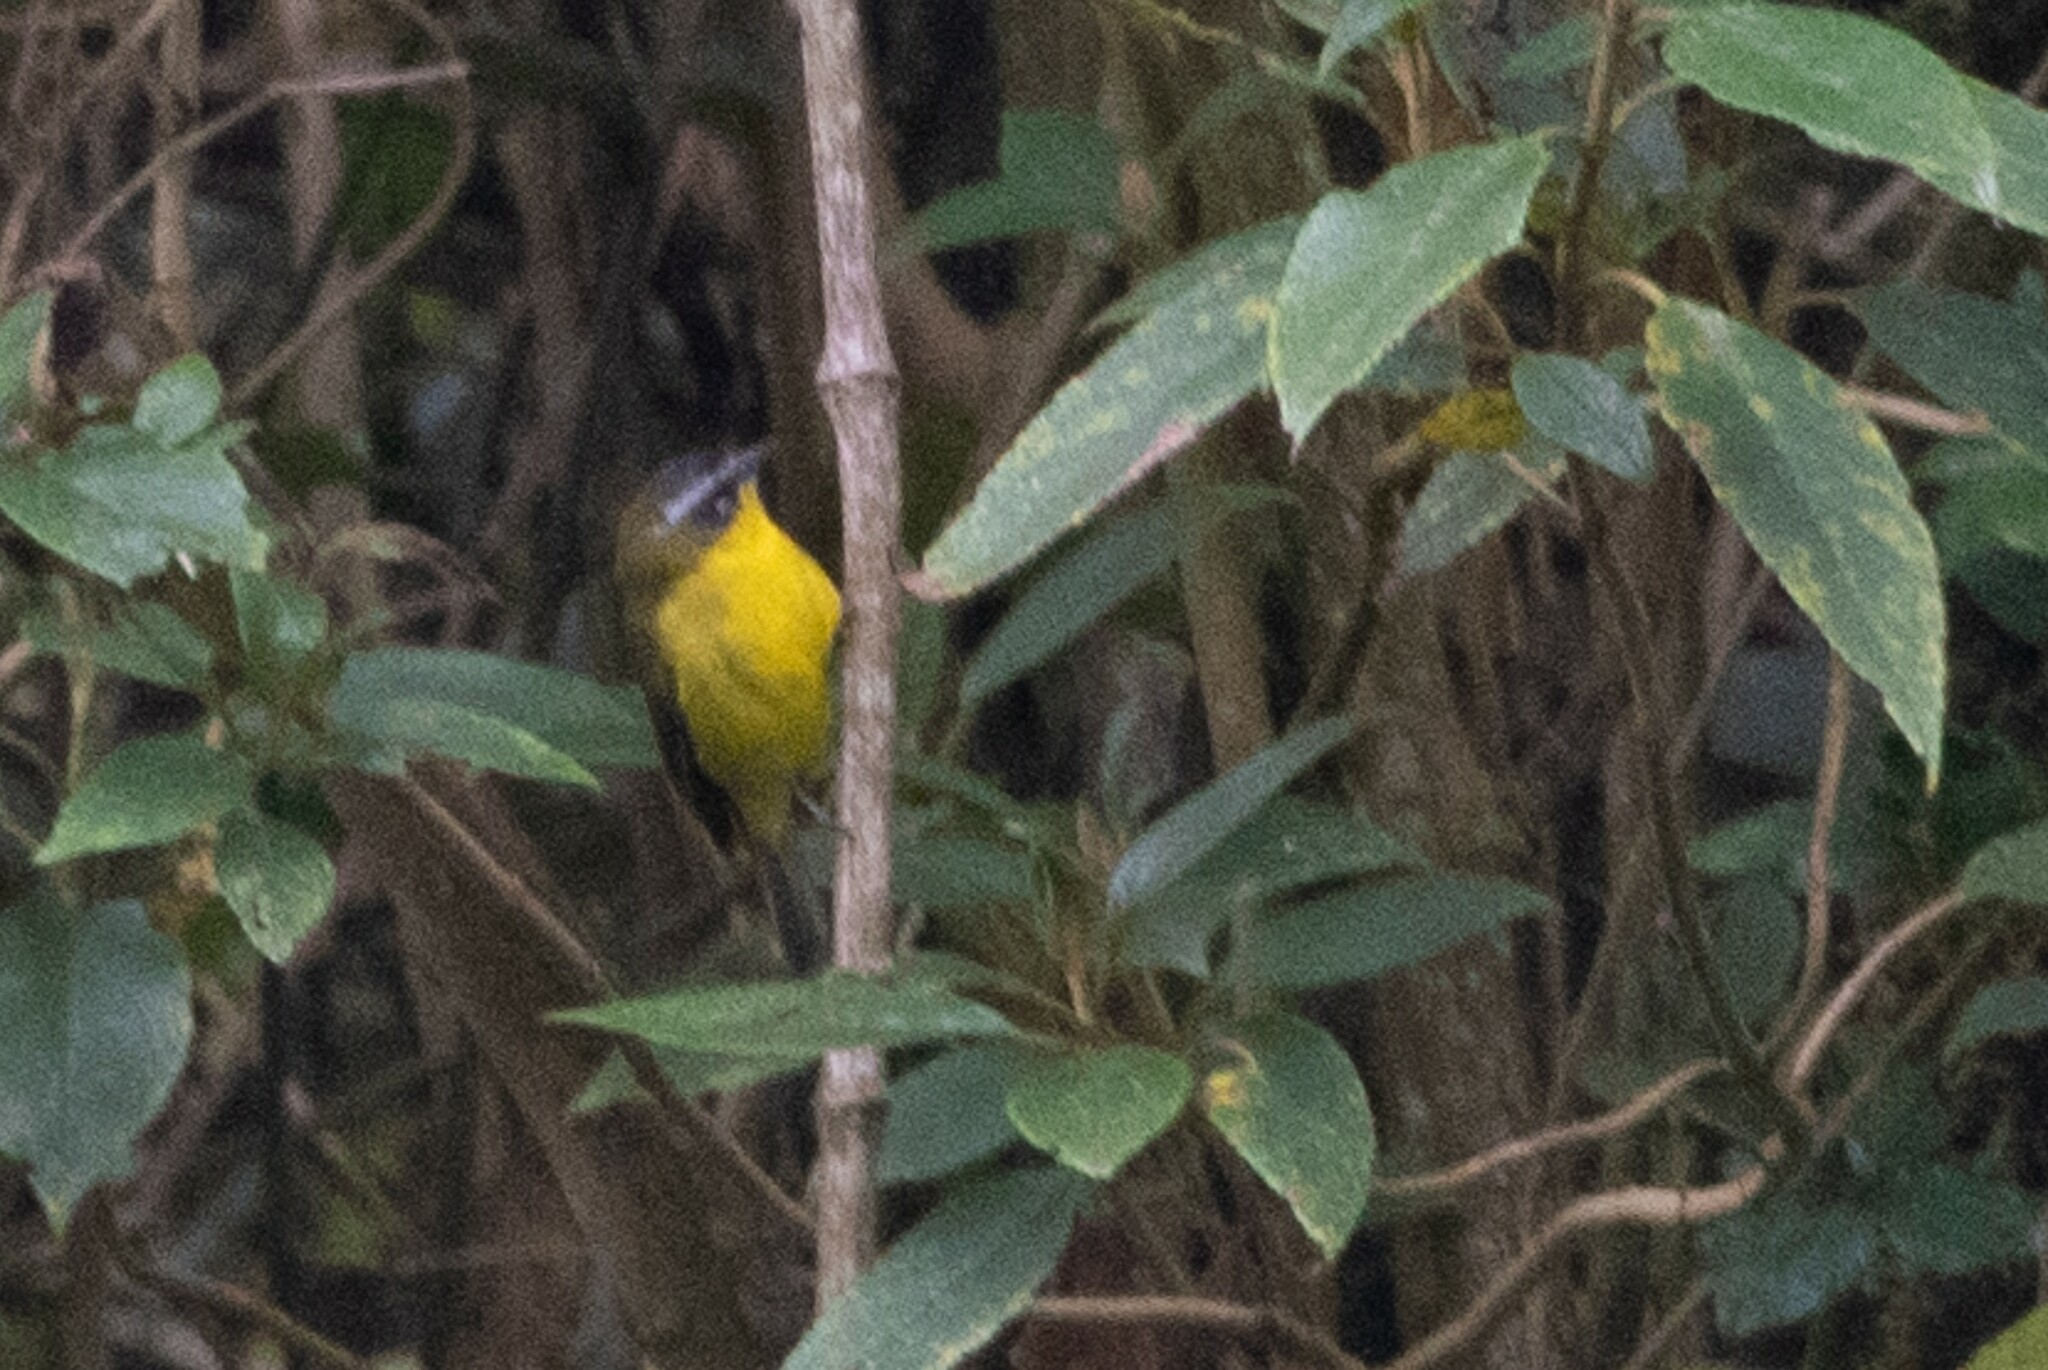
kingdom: Animalia
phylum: Chordata
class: Aves
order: Passeriformes
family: Thraupidae
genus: Thlypopsis
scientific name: Thlypopsis superciliaris
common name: Superciliaried hemispingus
